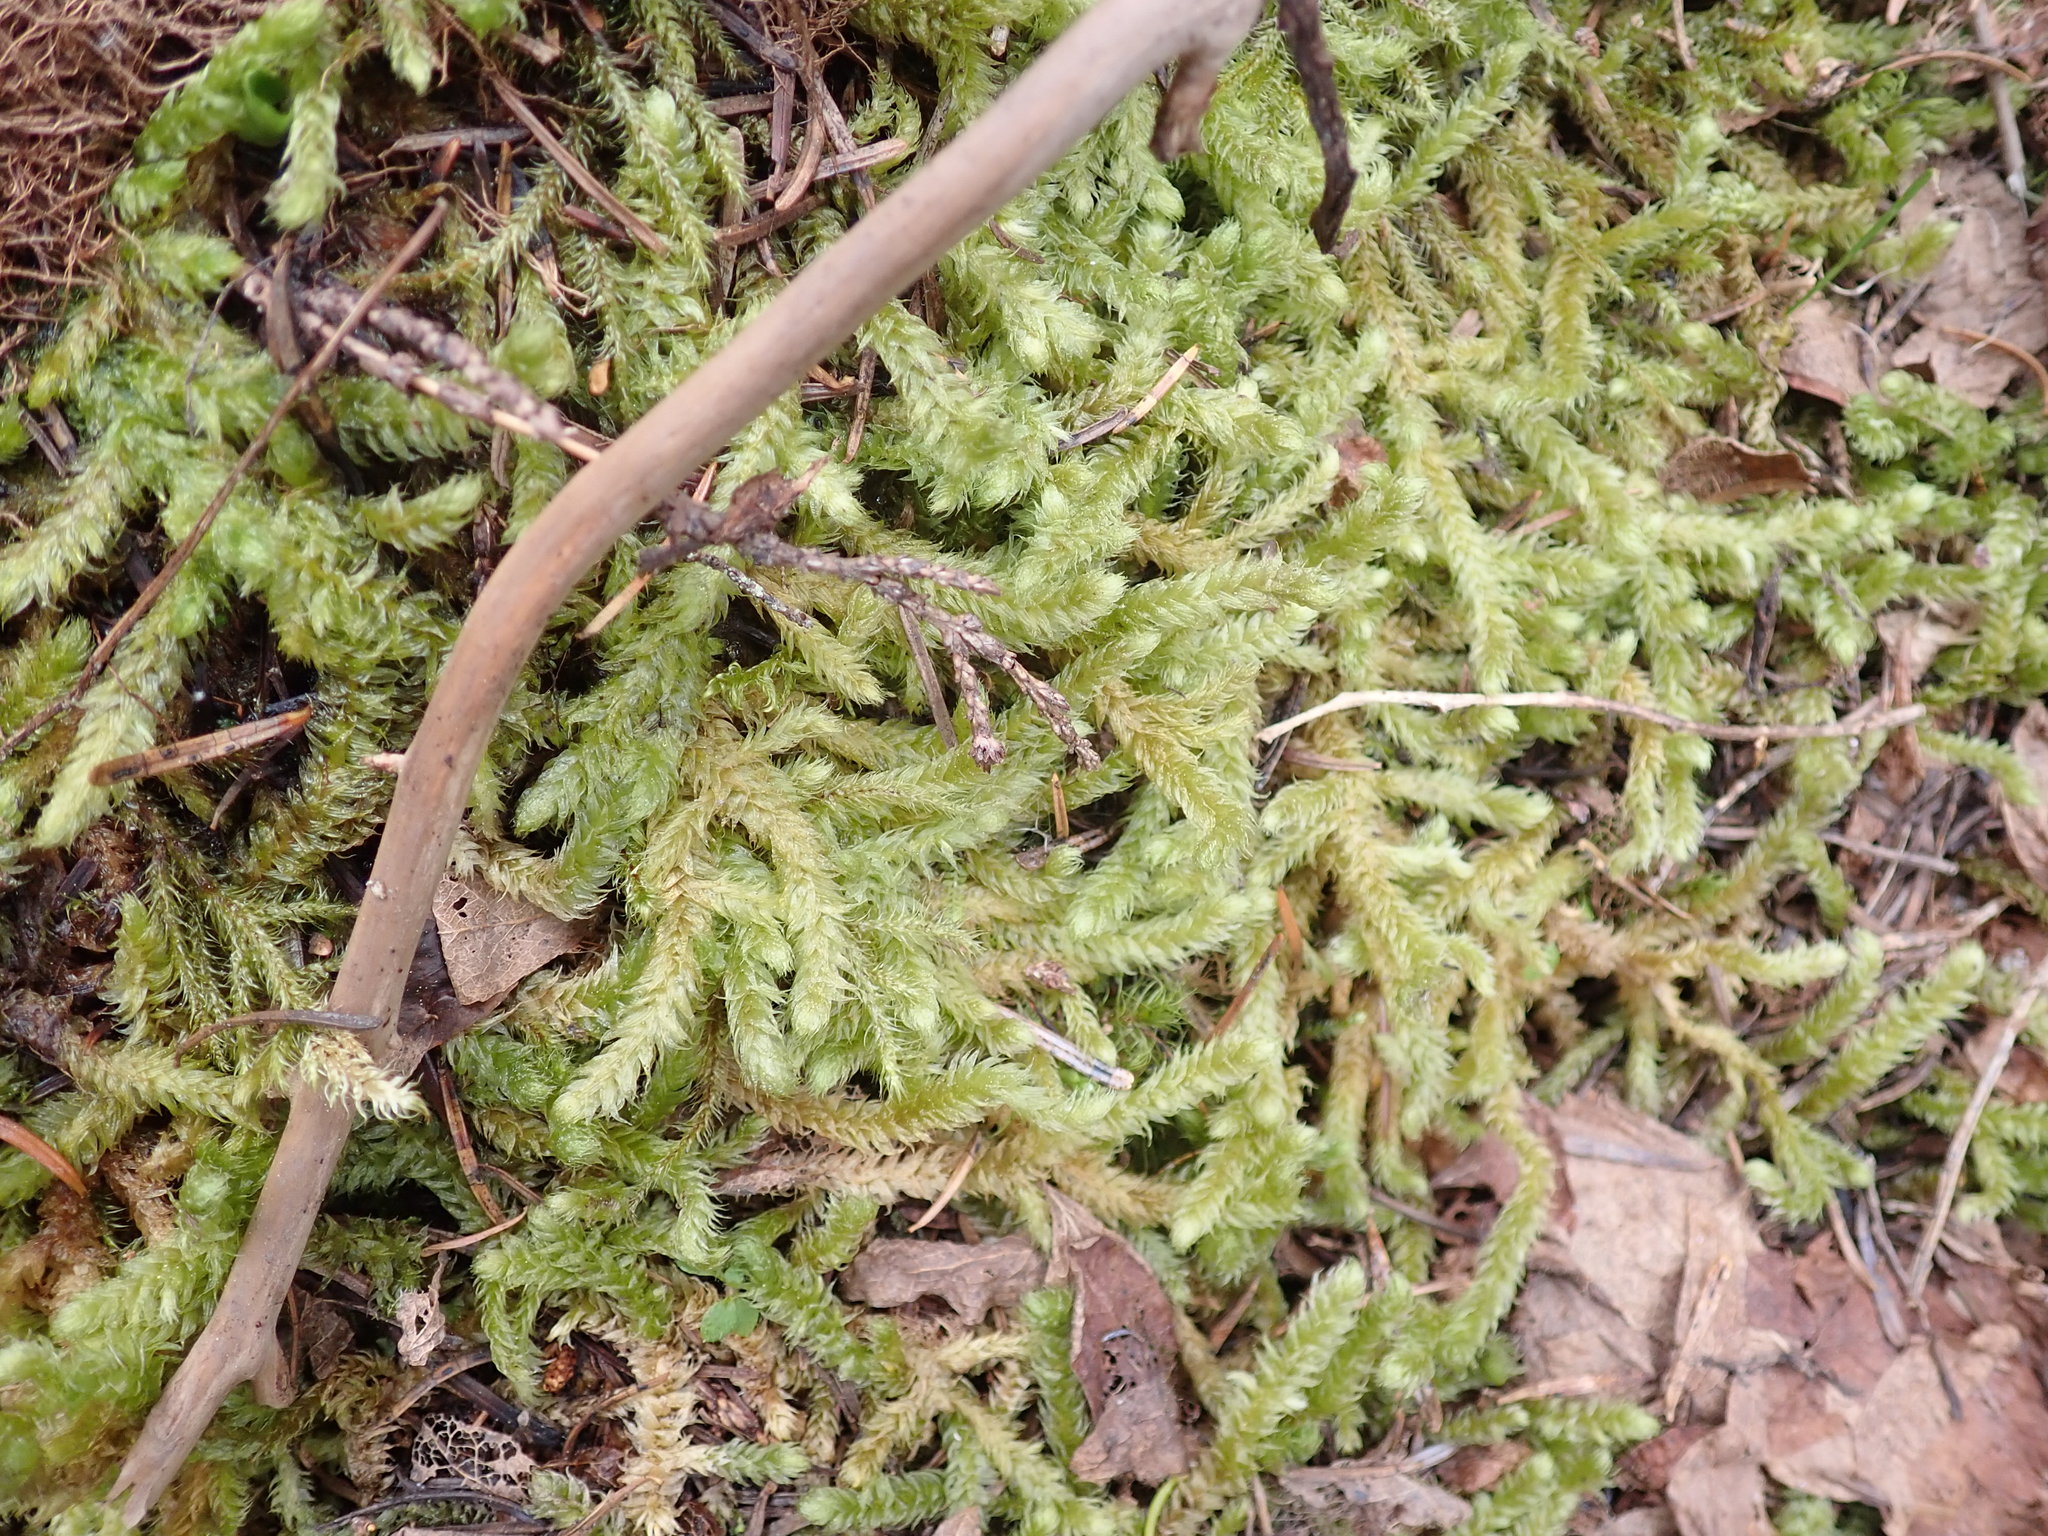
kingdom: Plantae
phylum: Bryophyta
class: Bryopsida
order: Hypnales
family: Hylocomiaceae
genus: Rhytidiopsis
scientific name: Rhytidiopsis robusta
